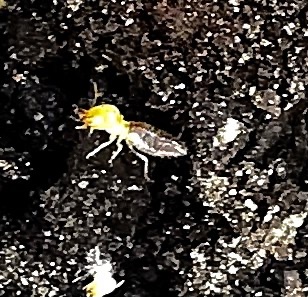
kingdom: Animalia
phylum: Arthropoda
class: Insecta
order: Blattodea
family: Termitidae
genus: Amitermes
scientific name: Amitermes hastatus
